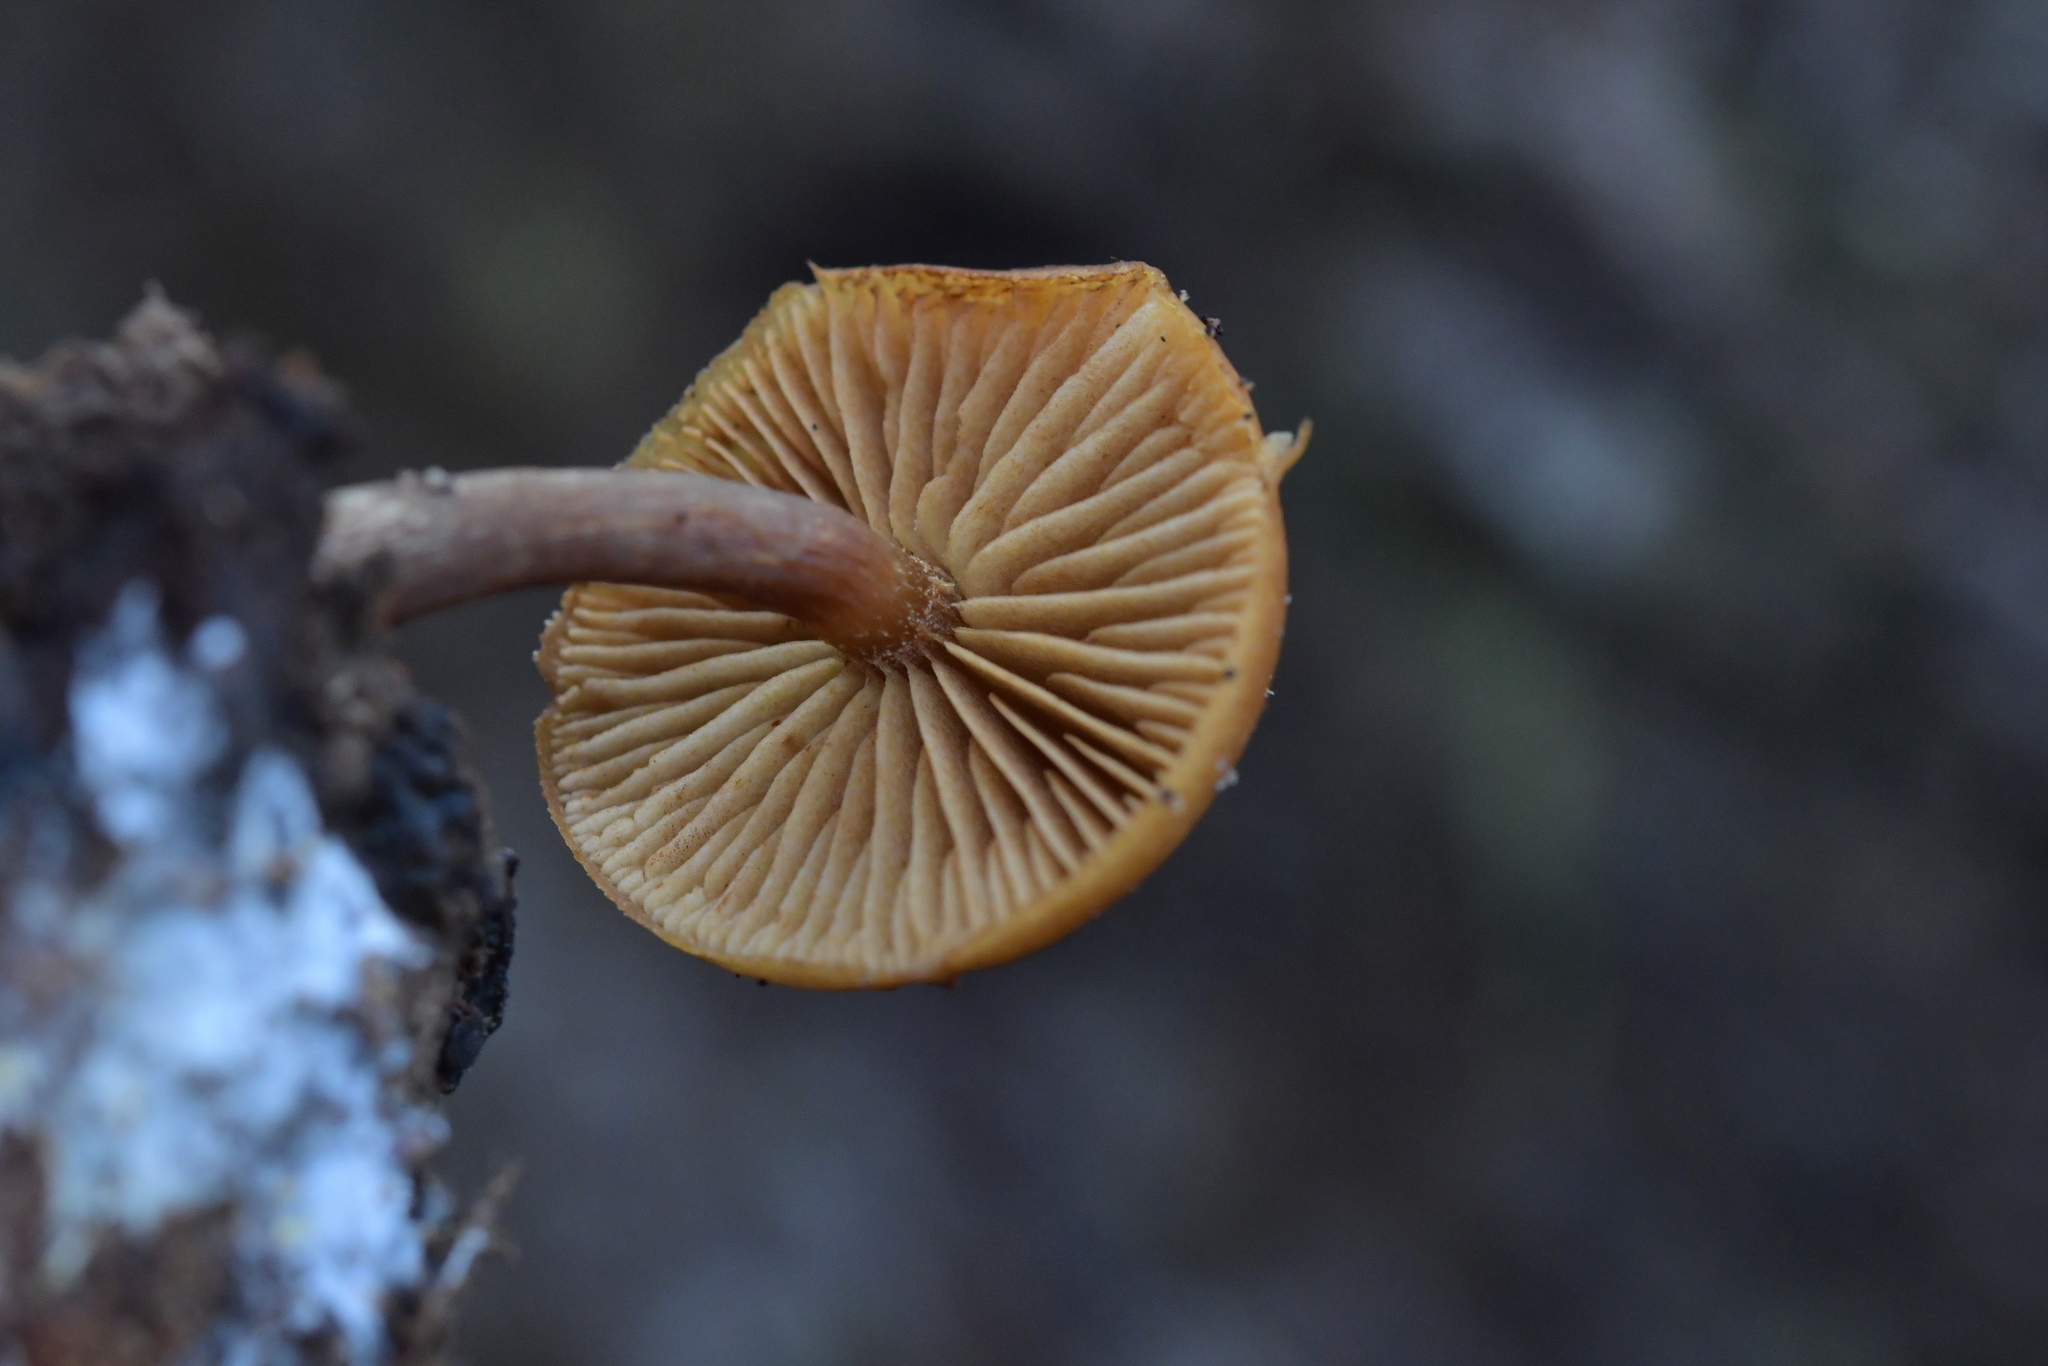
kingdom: Fungi
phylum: Basidiomycota
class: Agaricomycetes
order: Agaricales
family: Hymenogastraceae
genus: Galerina
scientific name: Galerina patagonica
